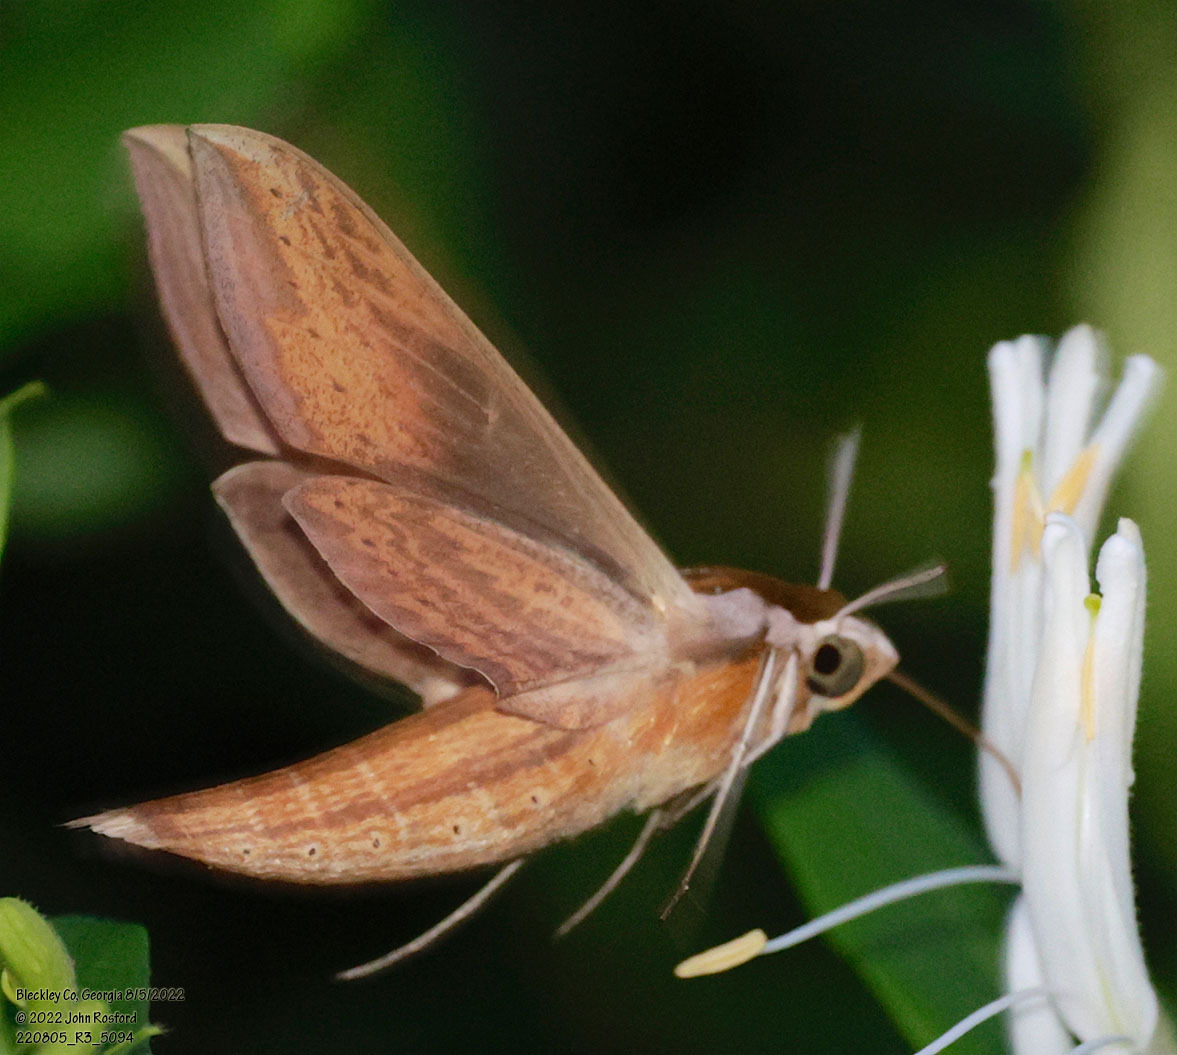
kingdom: Animalia
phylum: Arthropoda
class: Insecta
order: Lepidoptera
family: Sphingidae
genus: Xylophanes
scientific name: Xylophanes tersa
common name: Tersa sphinx
